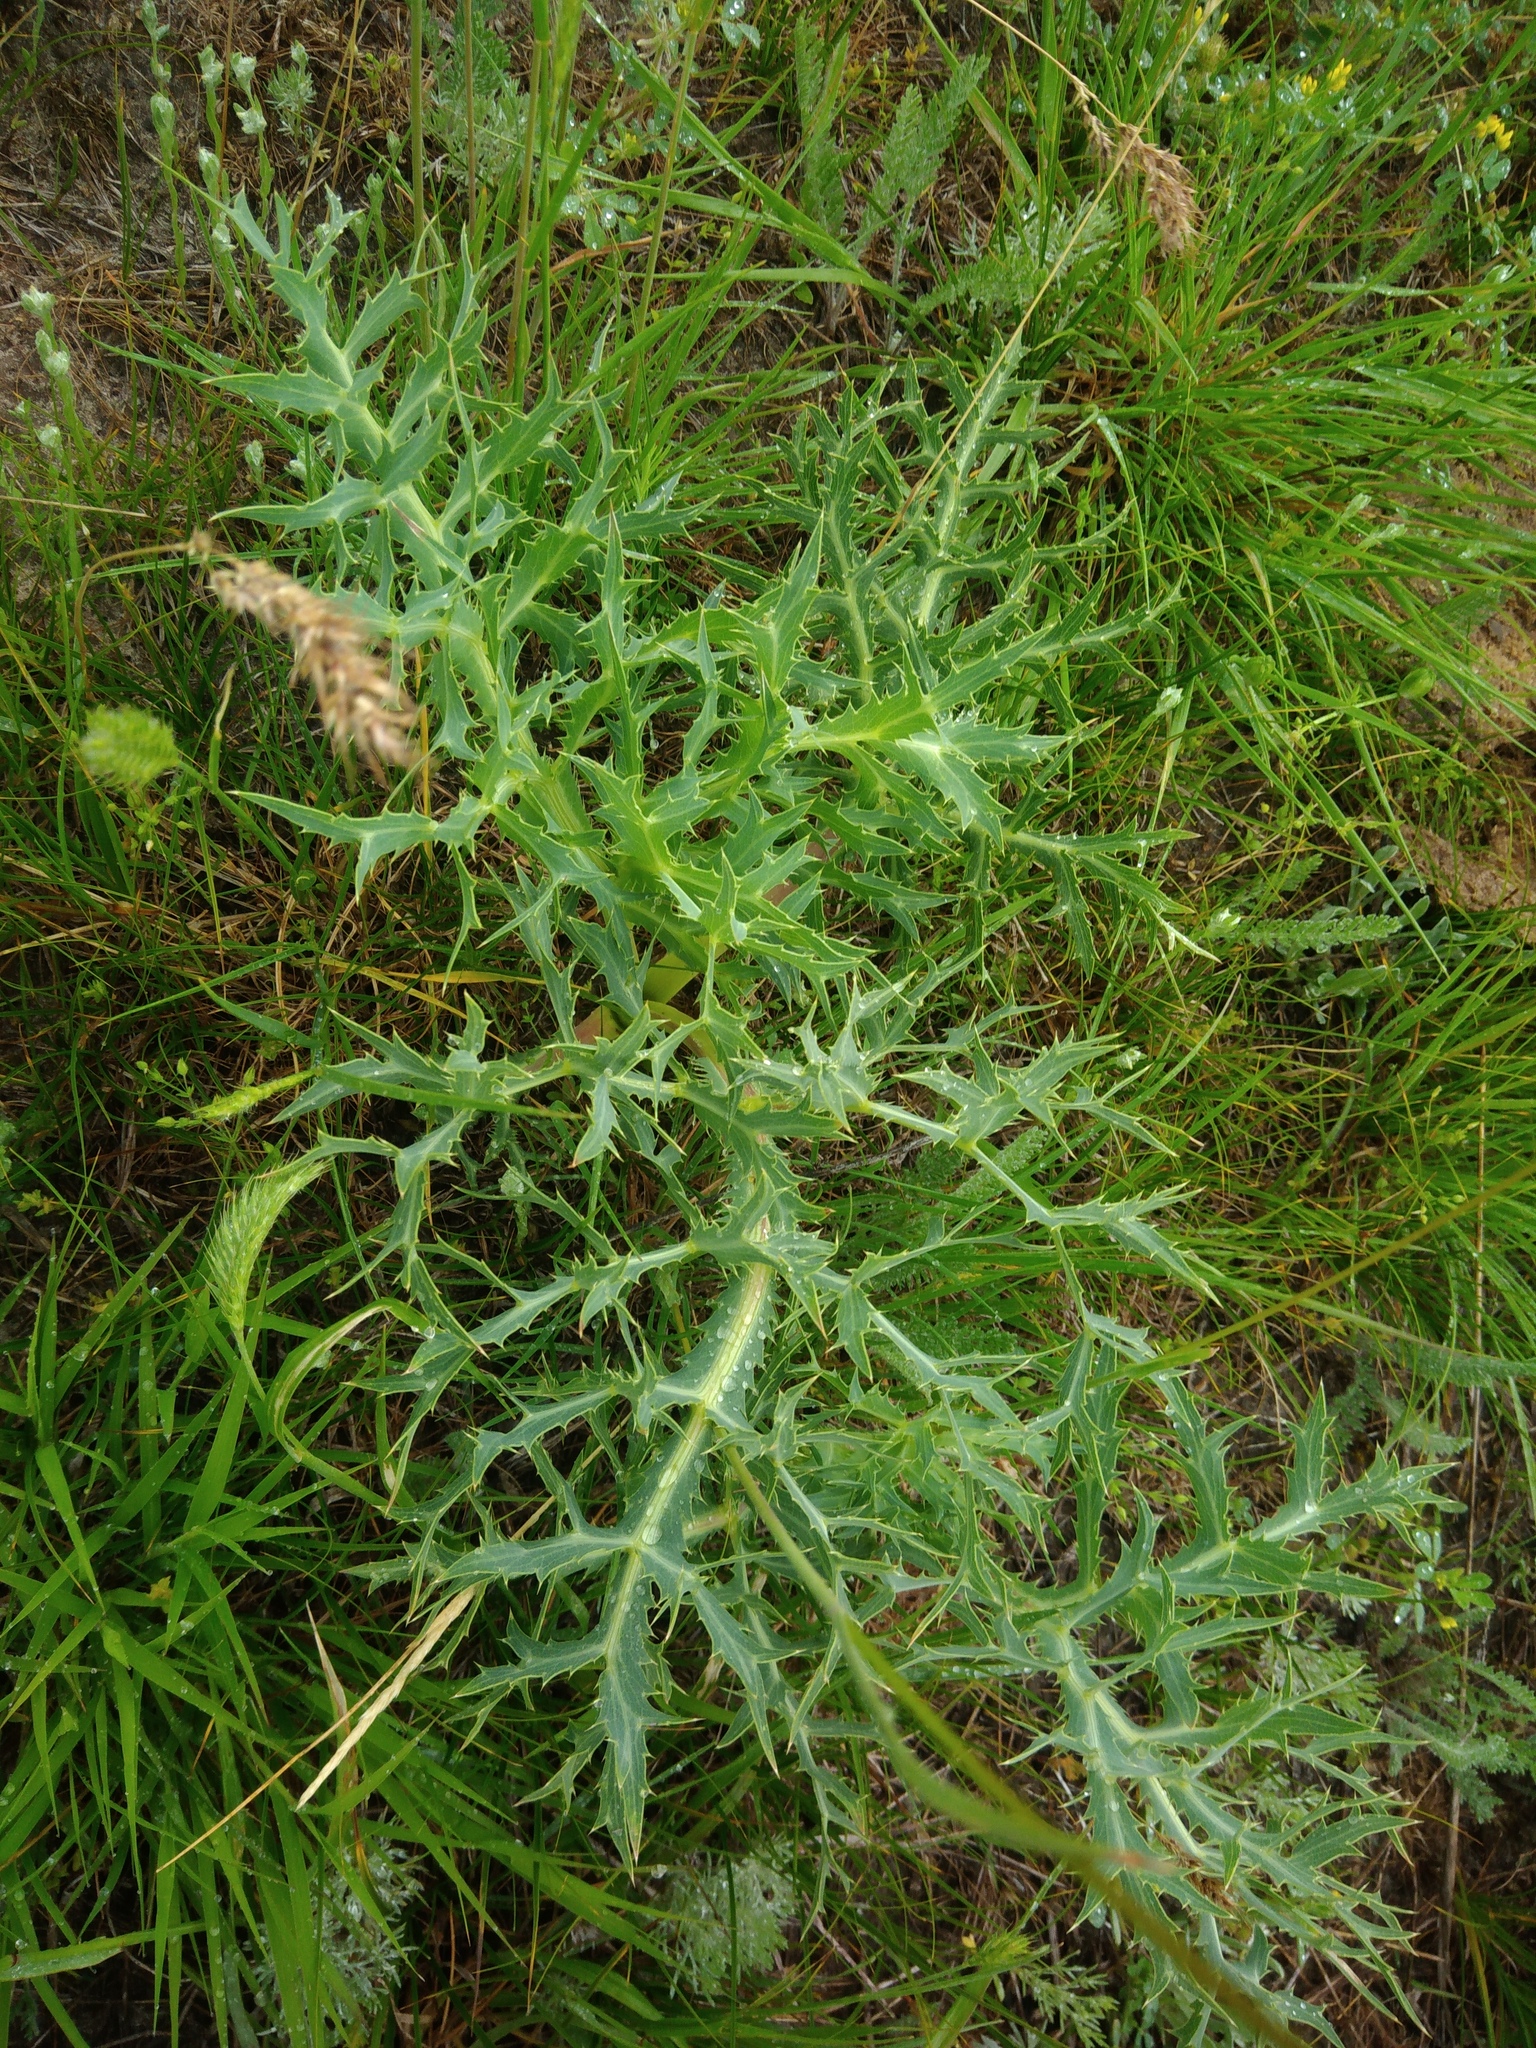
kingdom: Plantae
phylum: Tracheophyta
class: Magnoliopsida
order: Apiales
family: Apiaceae
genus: Eryngium
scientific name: Eryngium campestre
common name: Field eryngo
